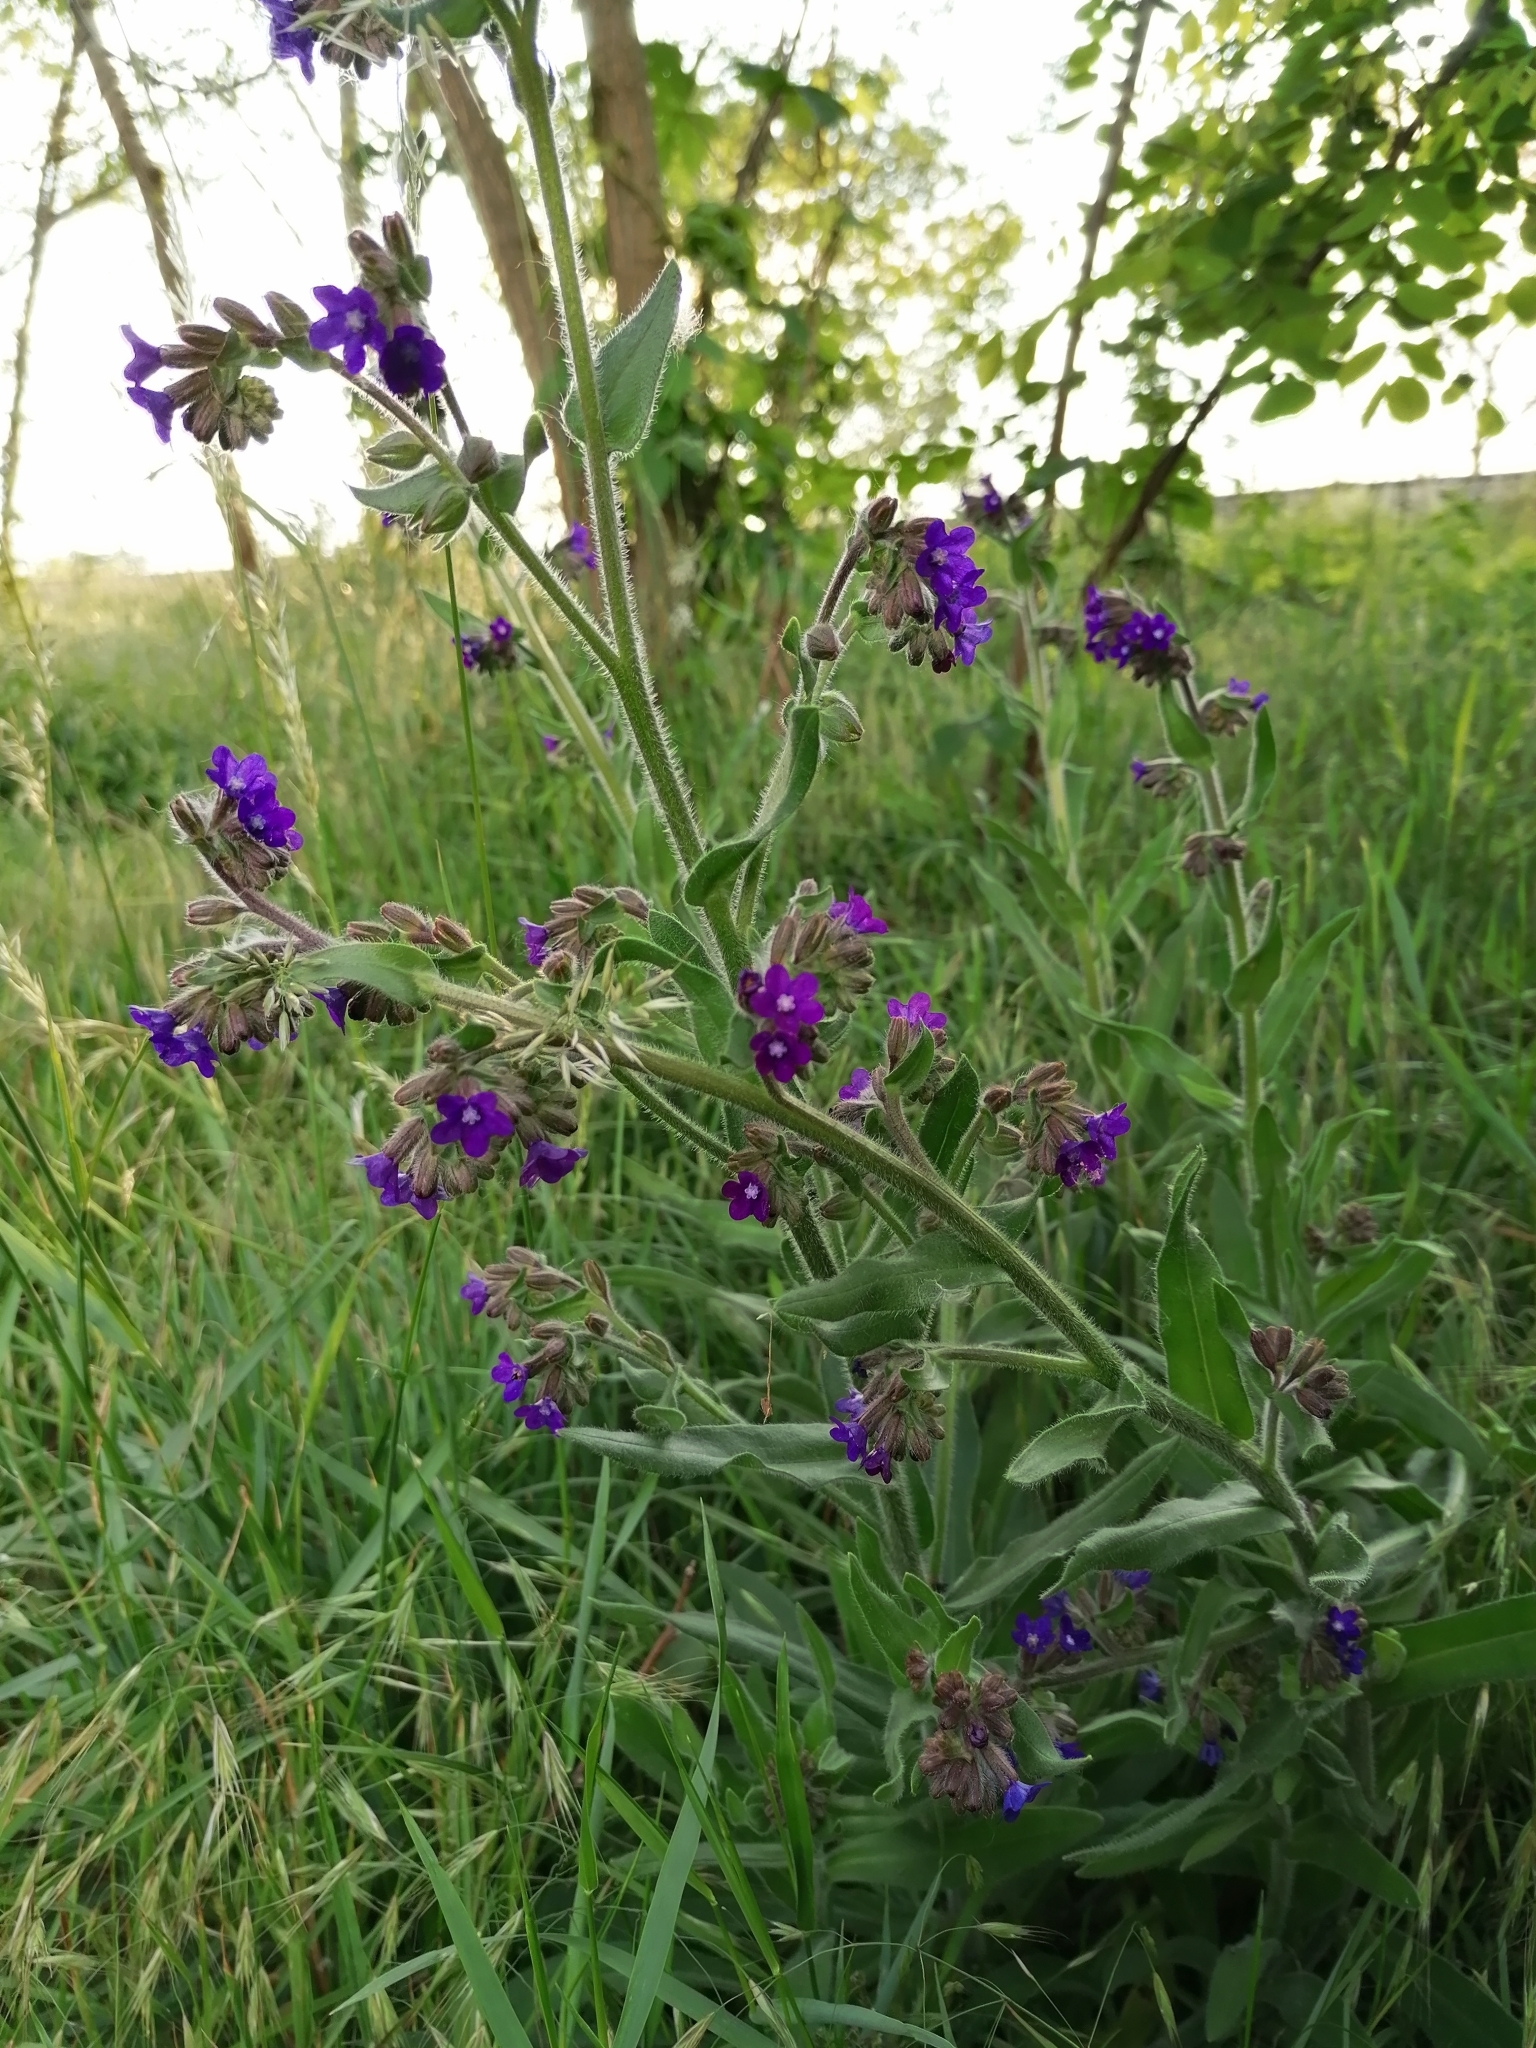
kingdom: Plantae
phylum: Tracheophyta
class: Magnoliopsida
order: Boraginales
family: Boraginaceae
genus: Anchusa
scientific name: Anchusa officinalis
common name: Alkanet
